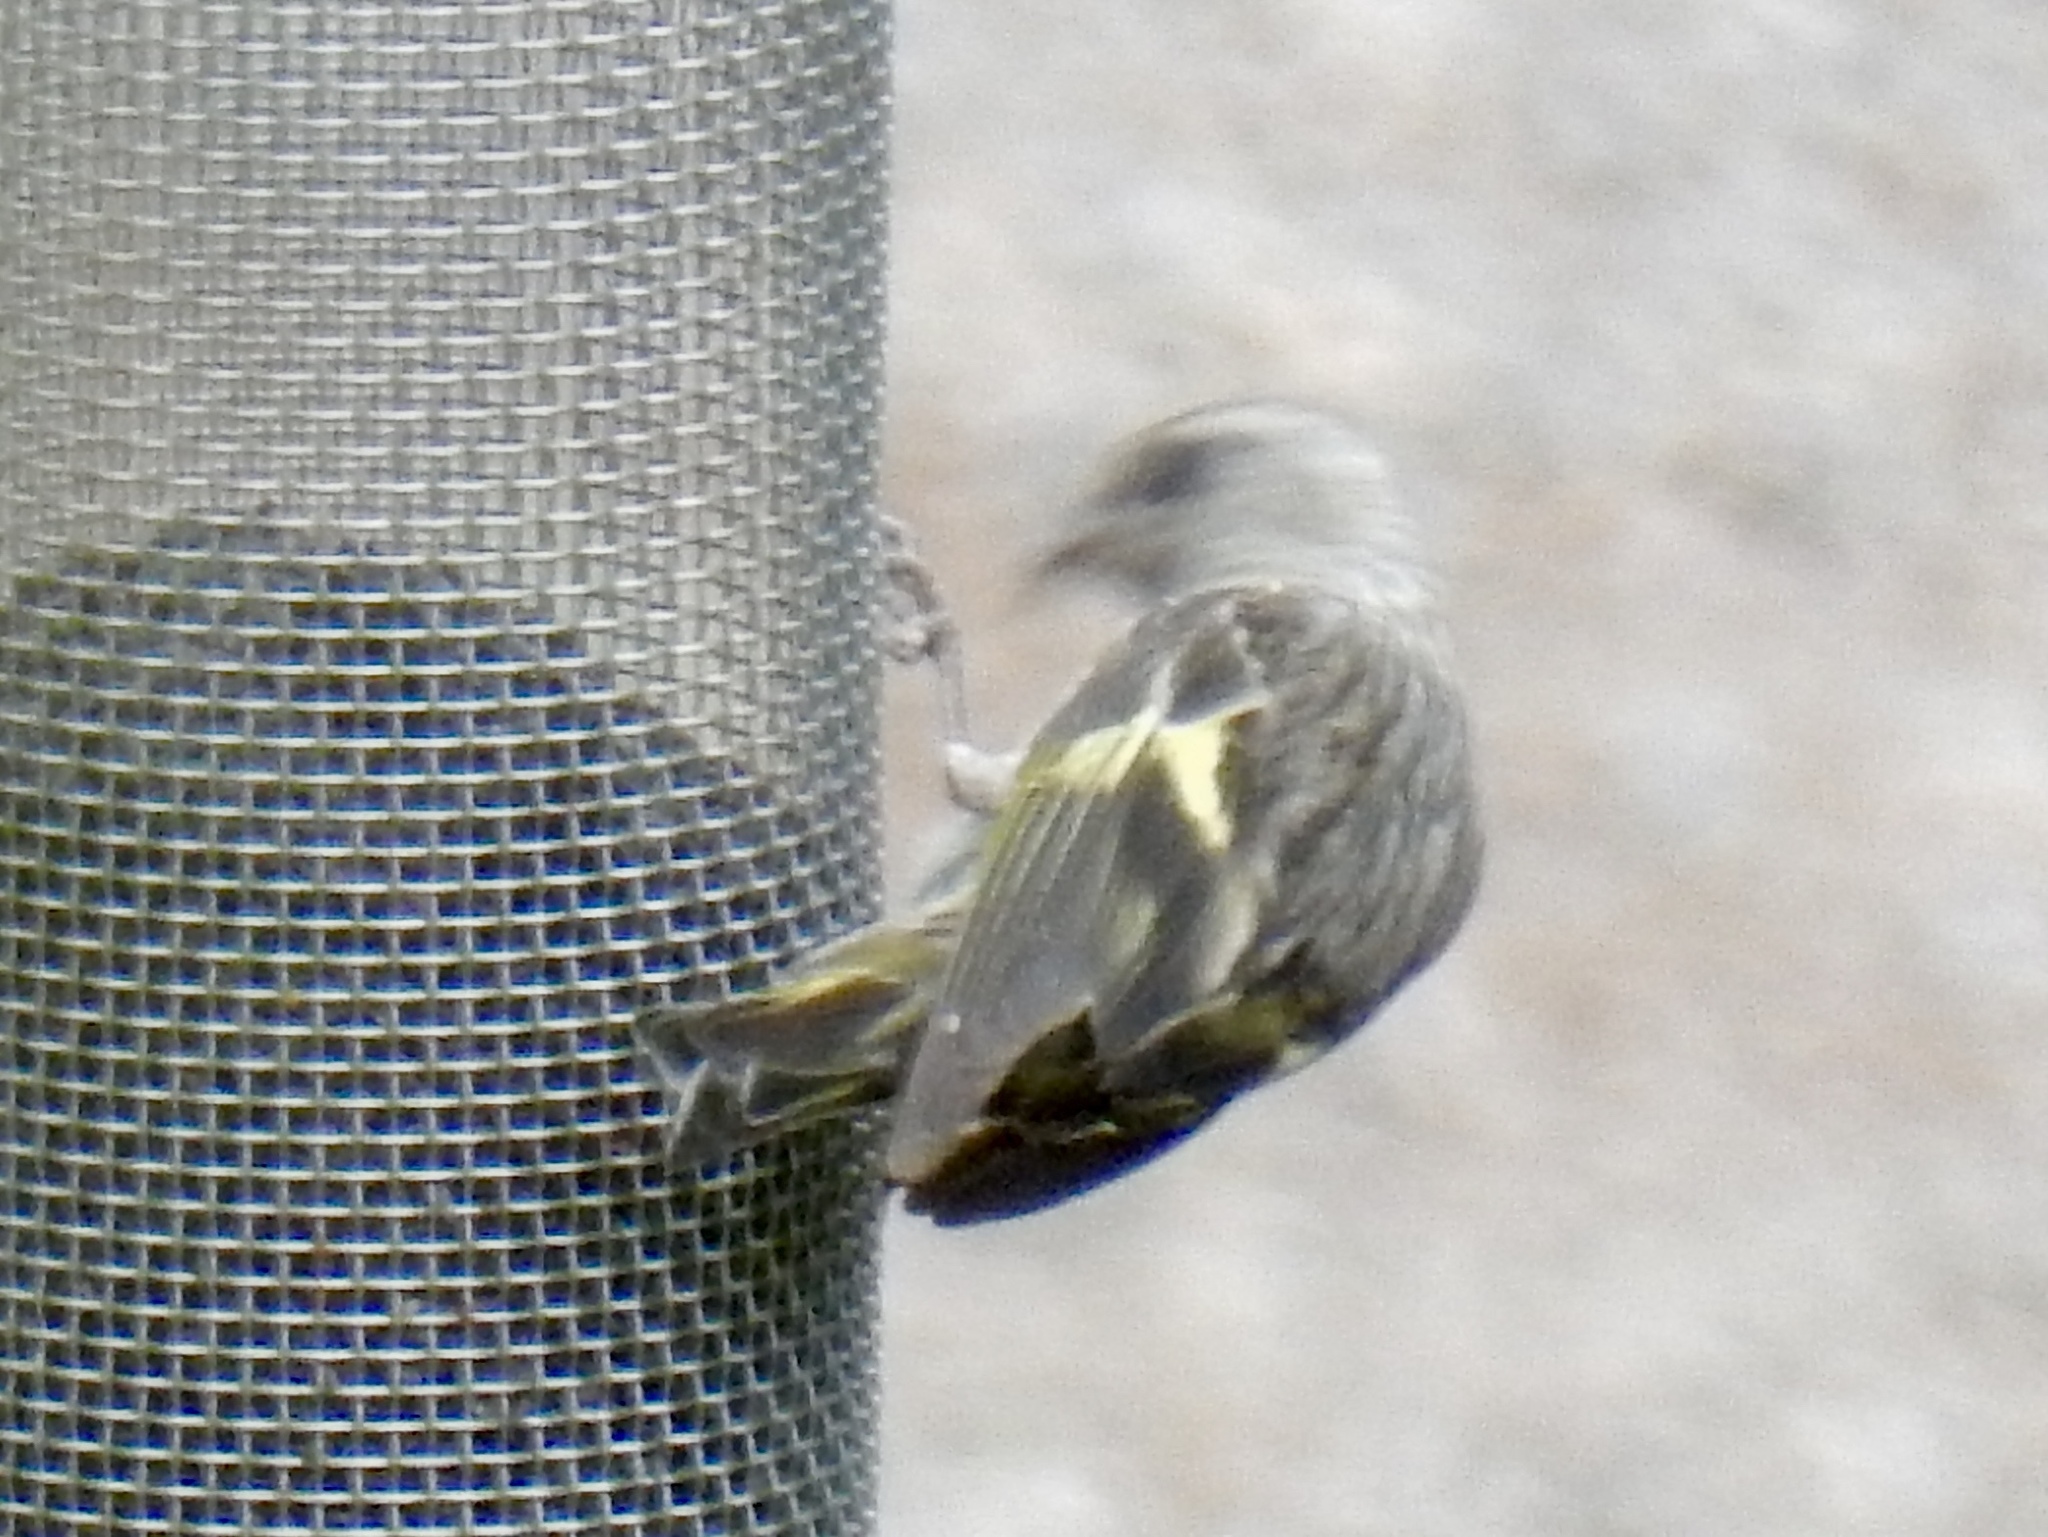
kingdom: Animalia
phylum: Chordata
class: Aves
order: Passeriformes
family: Fringillidae
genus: Spinus
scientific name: Spinus pinus
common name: Pine siskin
